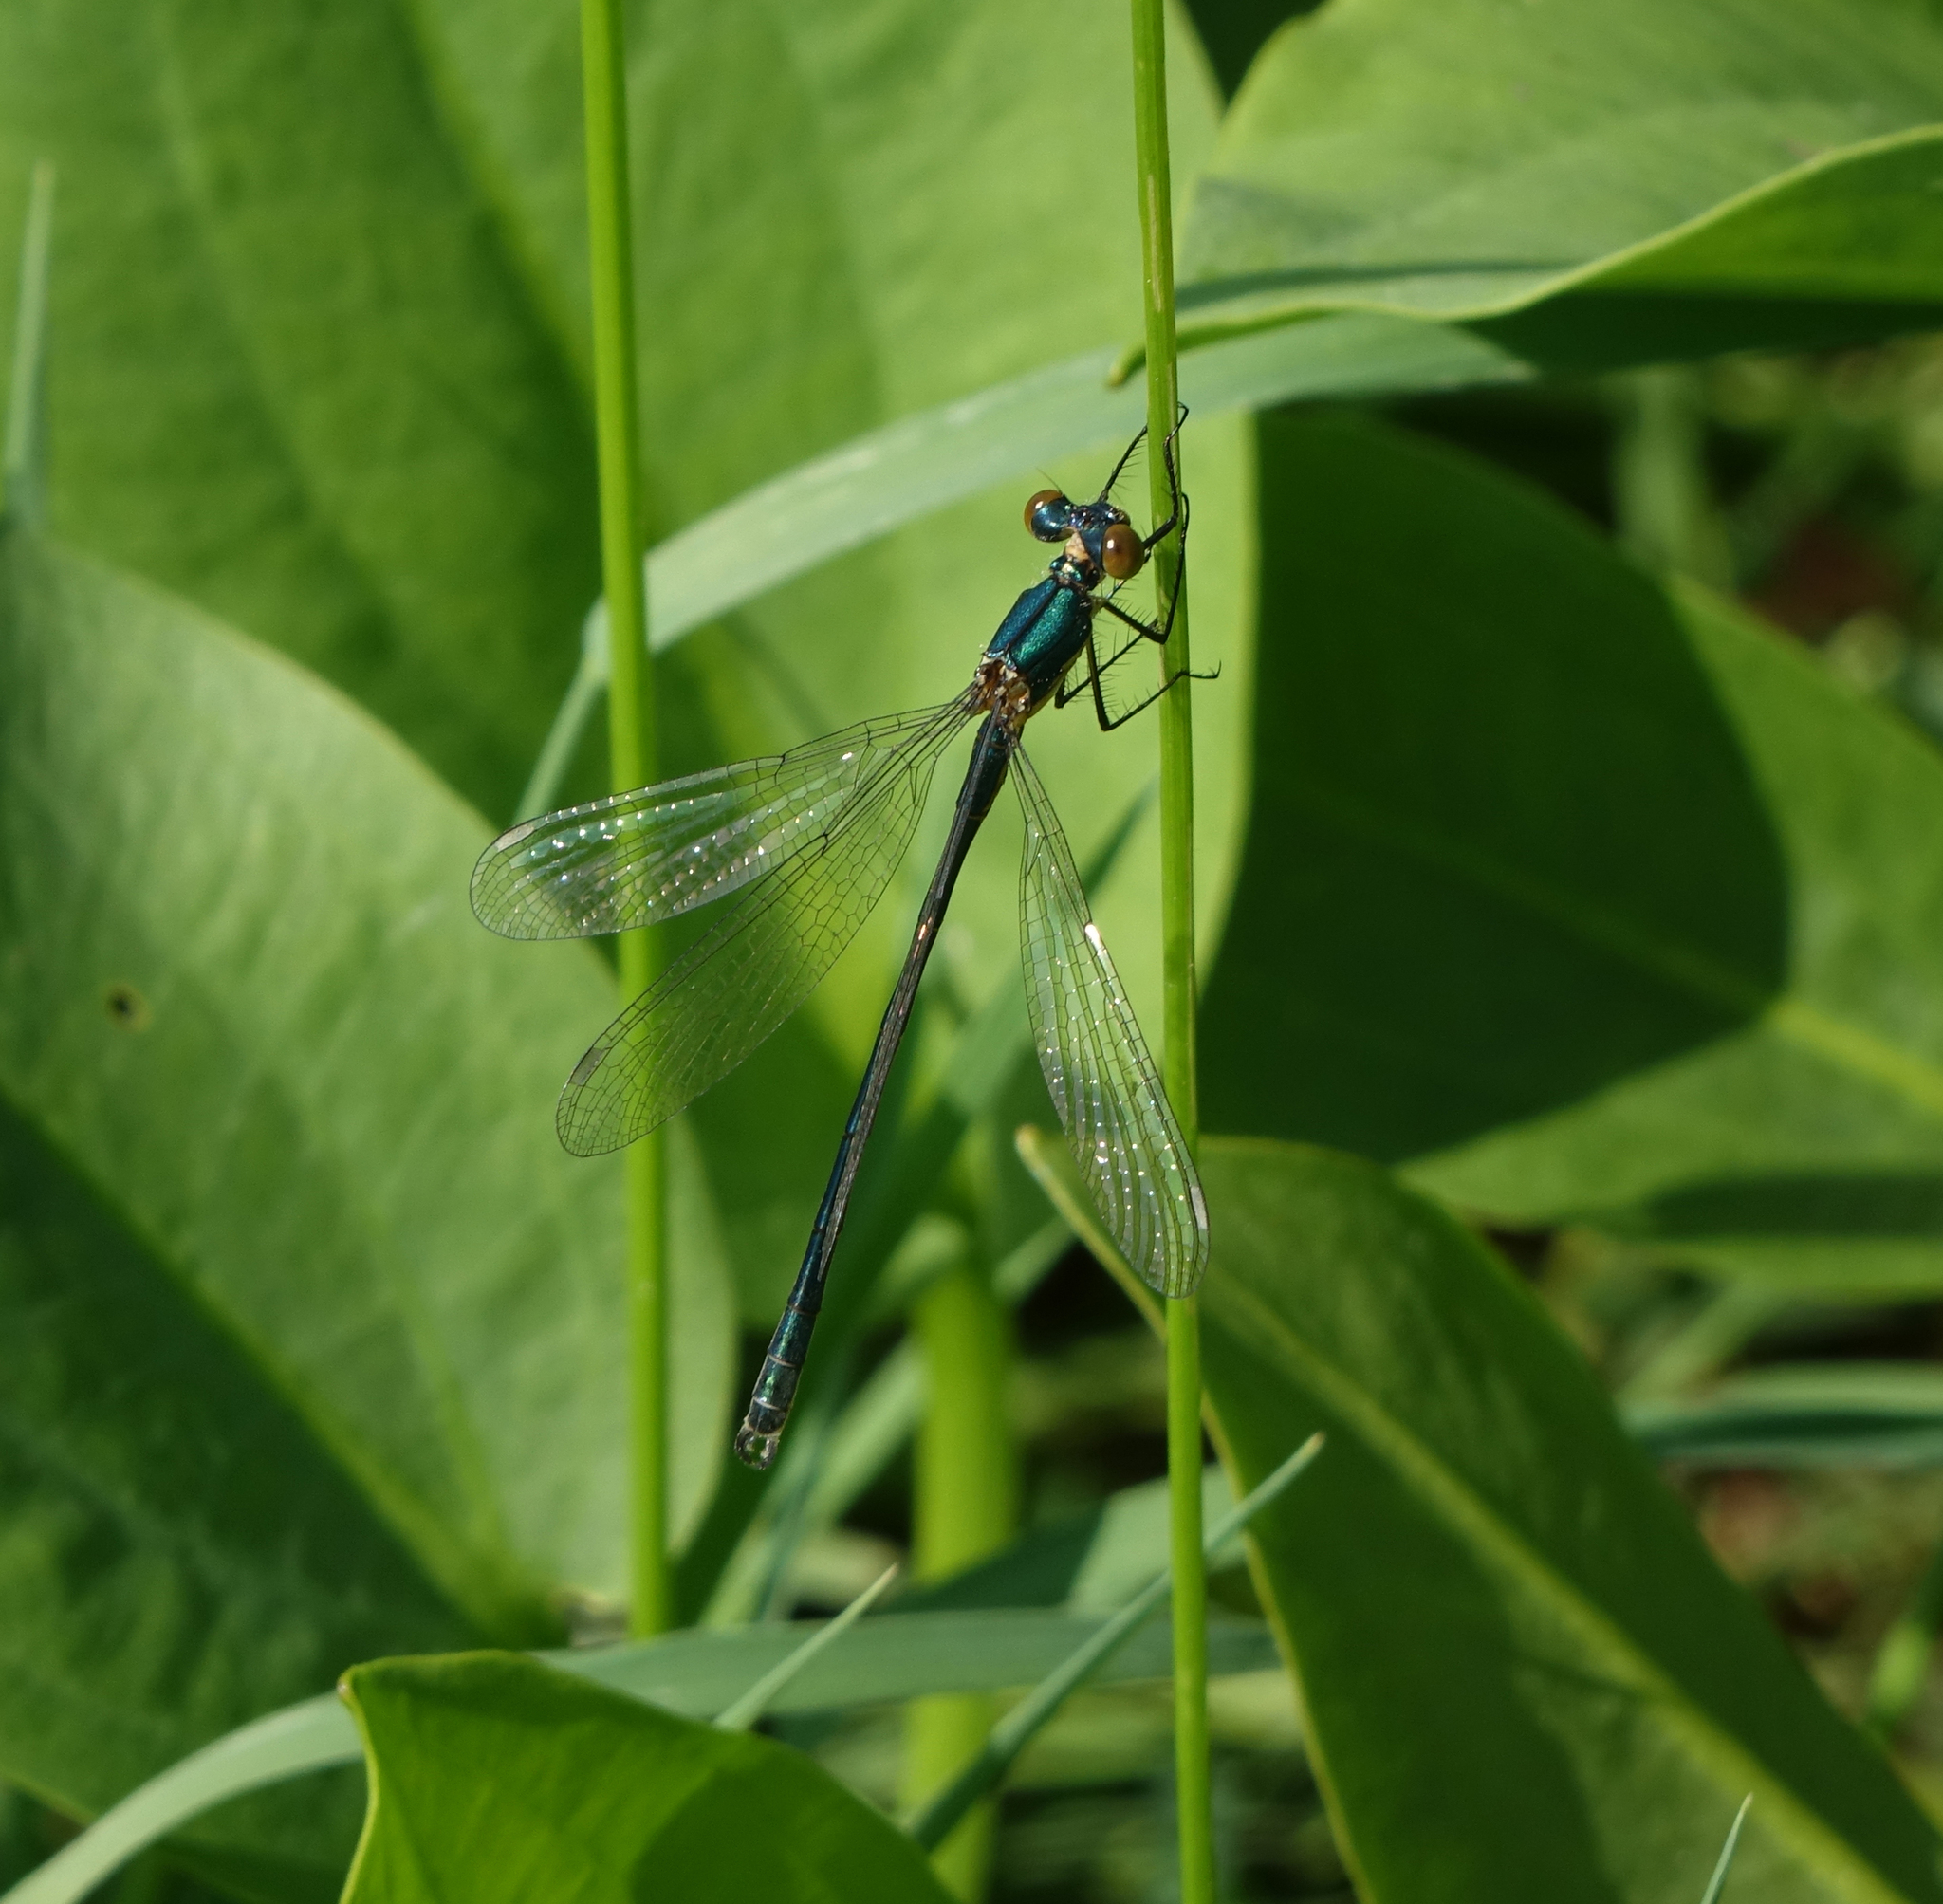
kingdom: Animalia
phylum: Arthropoda
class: Insecta
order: Odonata
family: Lestidae
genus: Lestes
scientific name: Lestes dryas
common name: Scarce emerald damselfly
